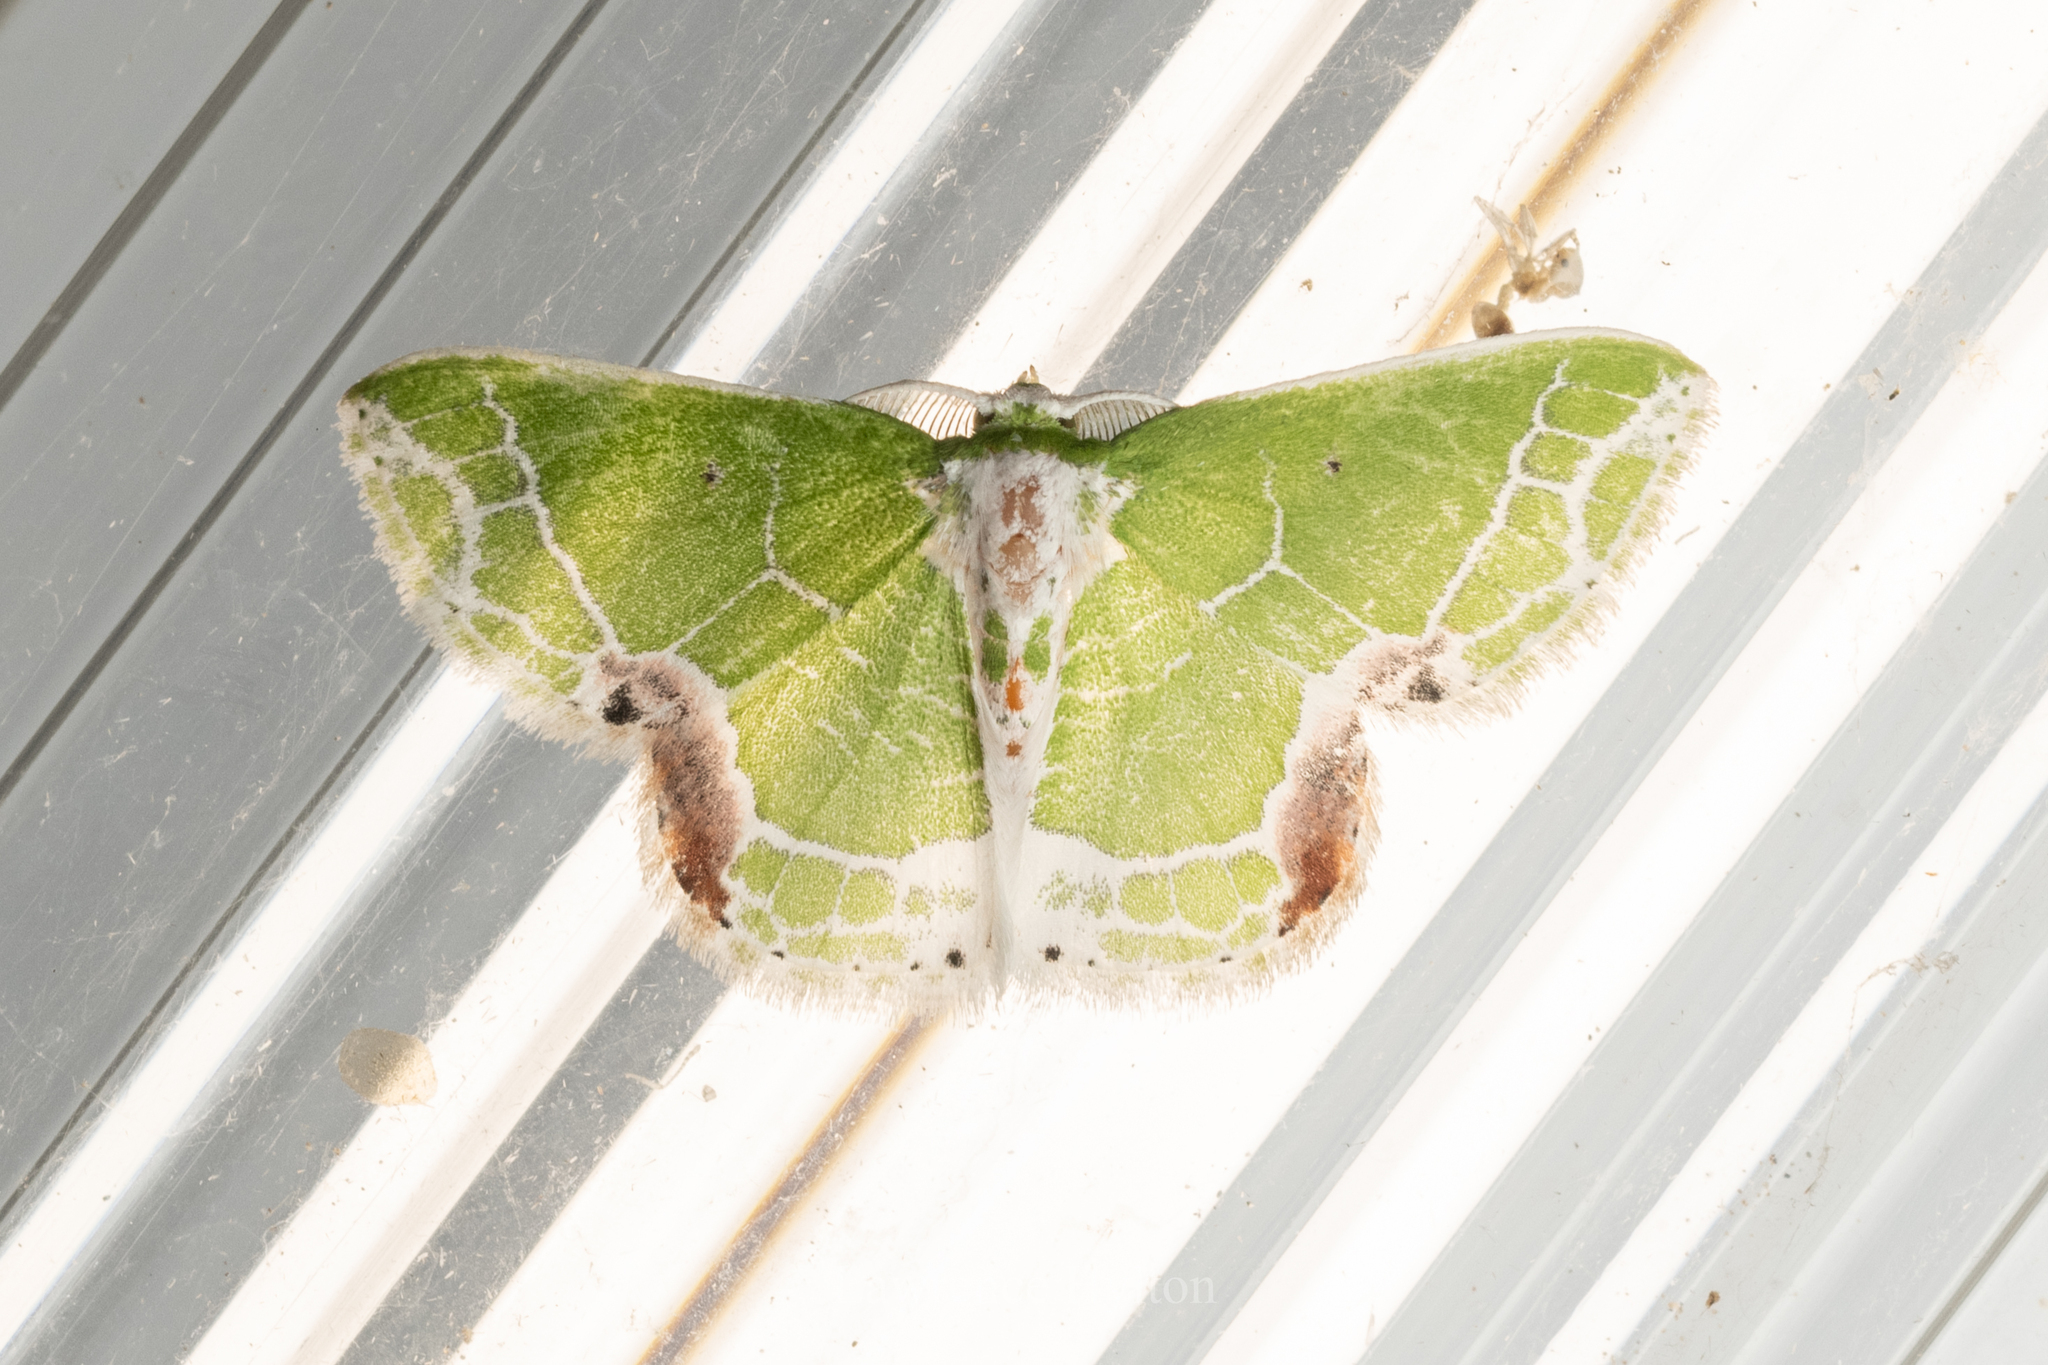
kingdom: Animalia
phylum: Arthropoda
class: Insecta
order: Lepidoptera
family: Geometridae
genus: Protuliocnemis
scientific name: Protuliocnemis castalaria
